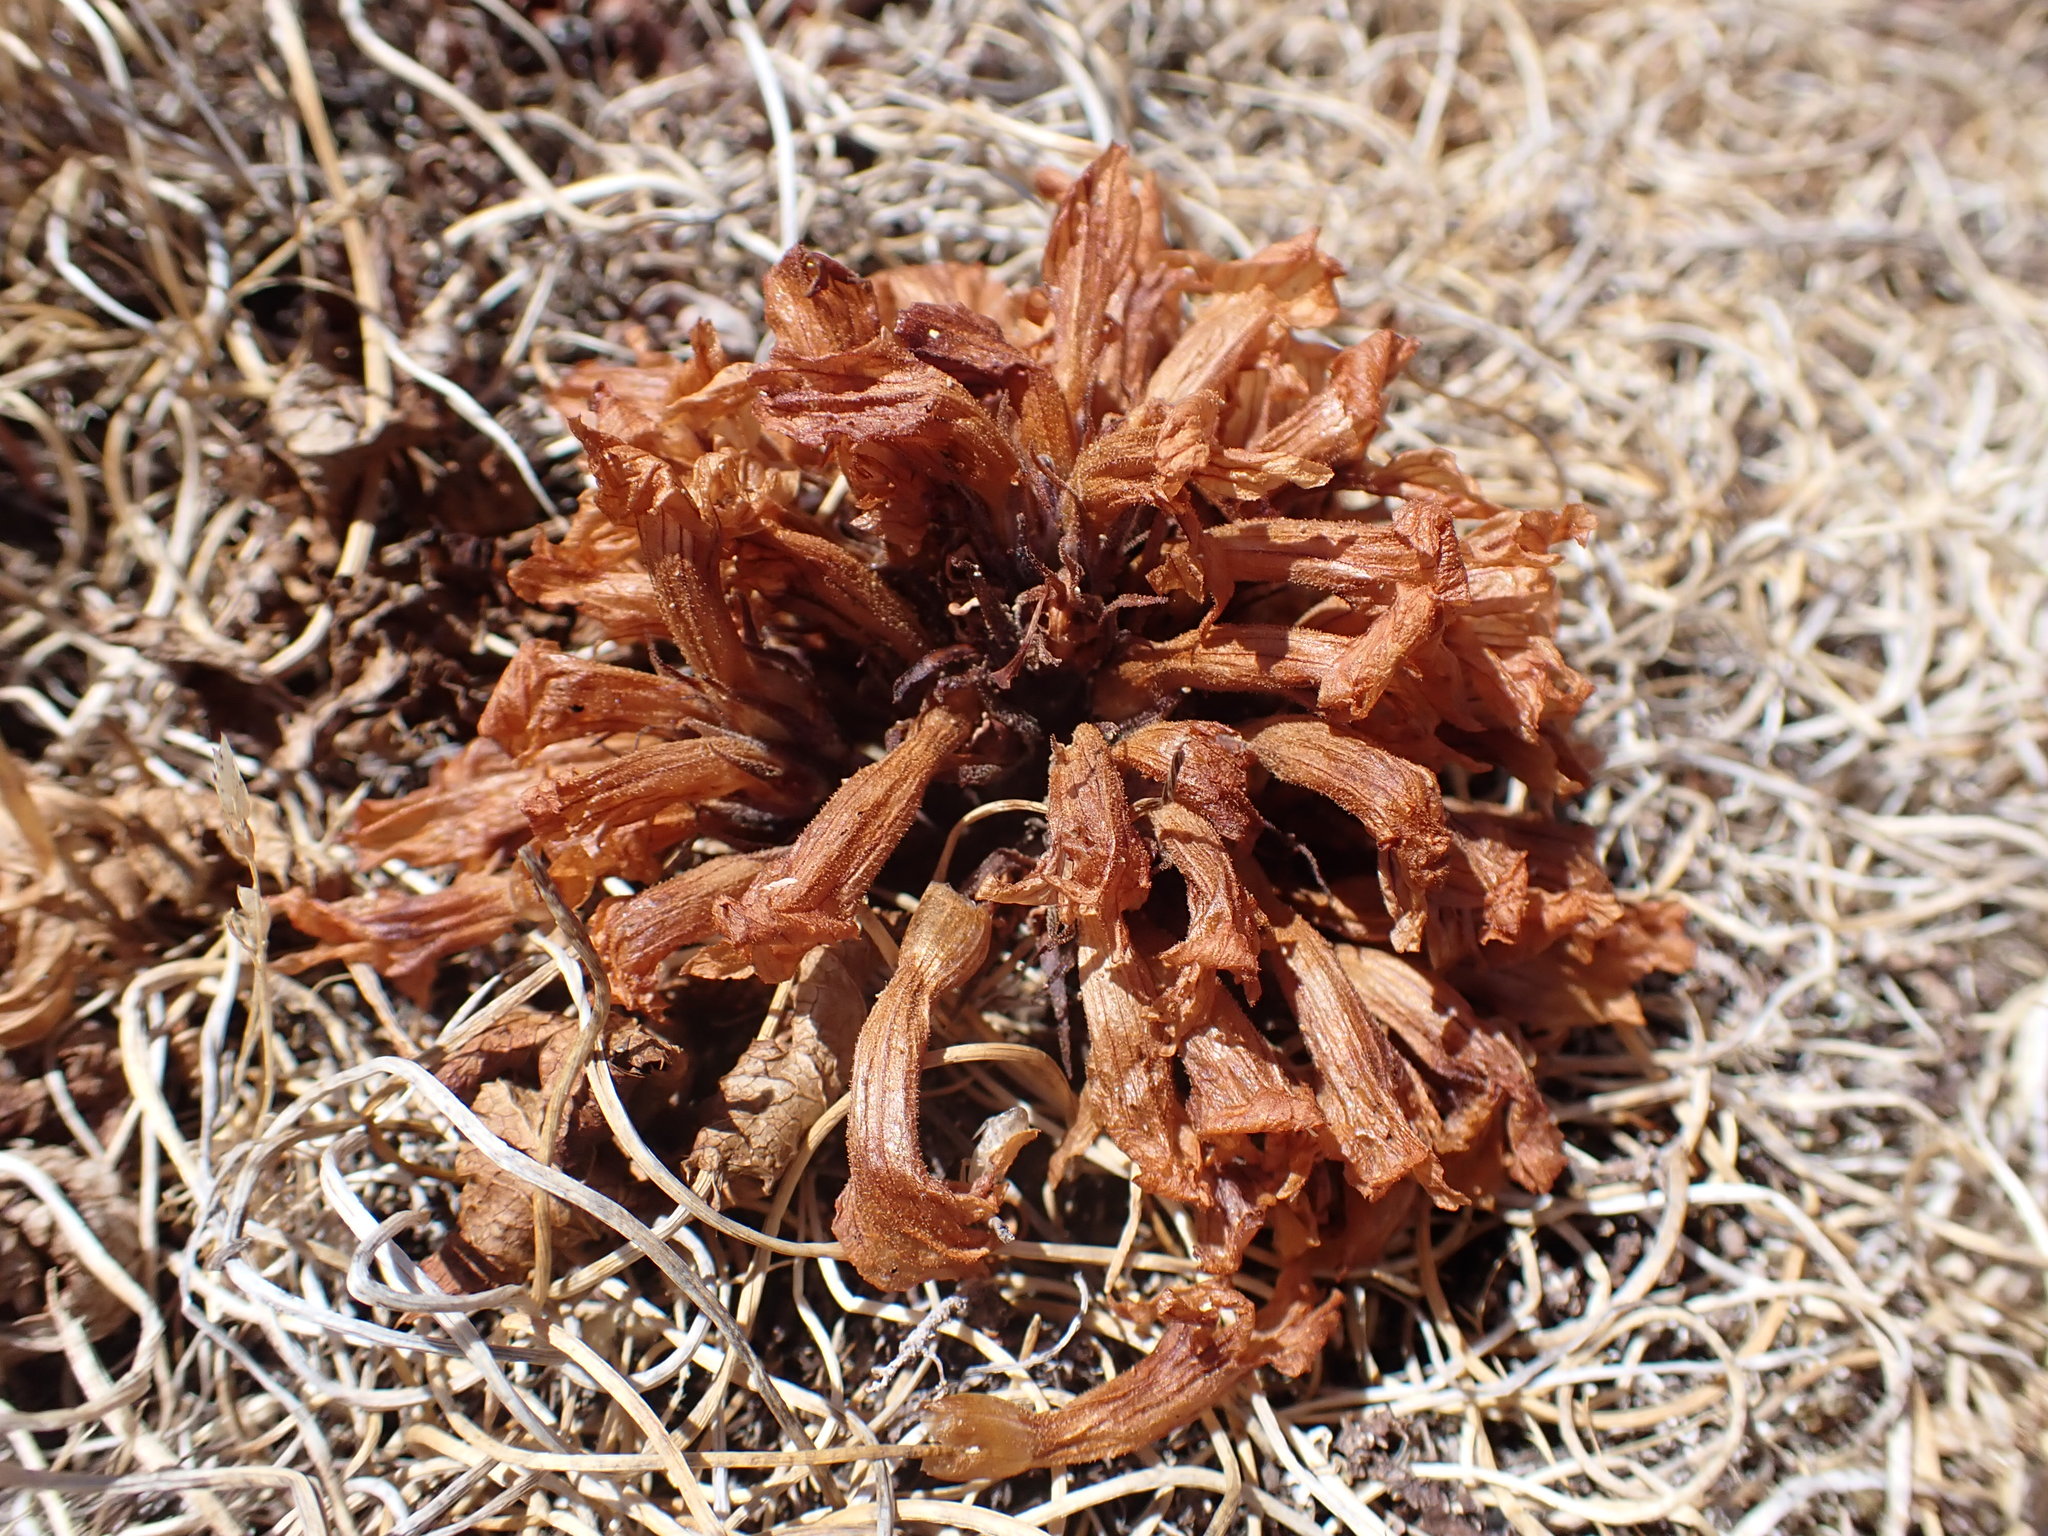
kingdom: Plantae
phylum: Tracheophyta
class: Magnoliopsida
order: Lamiales
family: Orobanchaceae
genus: Aphyllon
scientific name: Aphyllon californicum
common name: California broomrape
